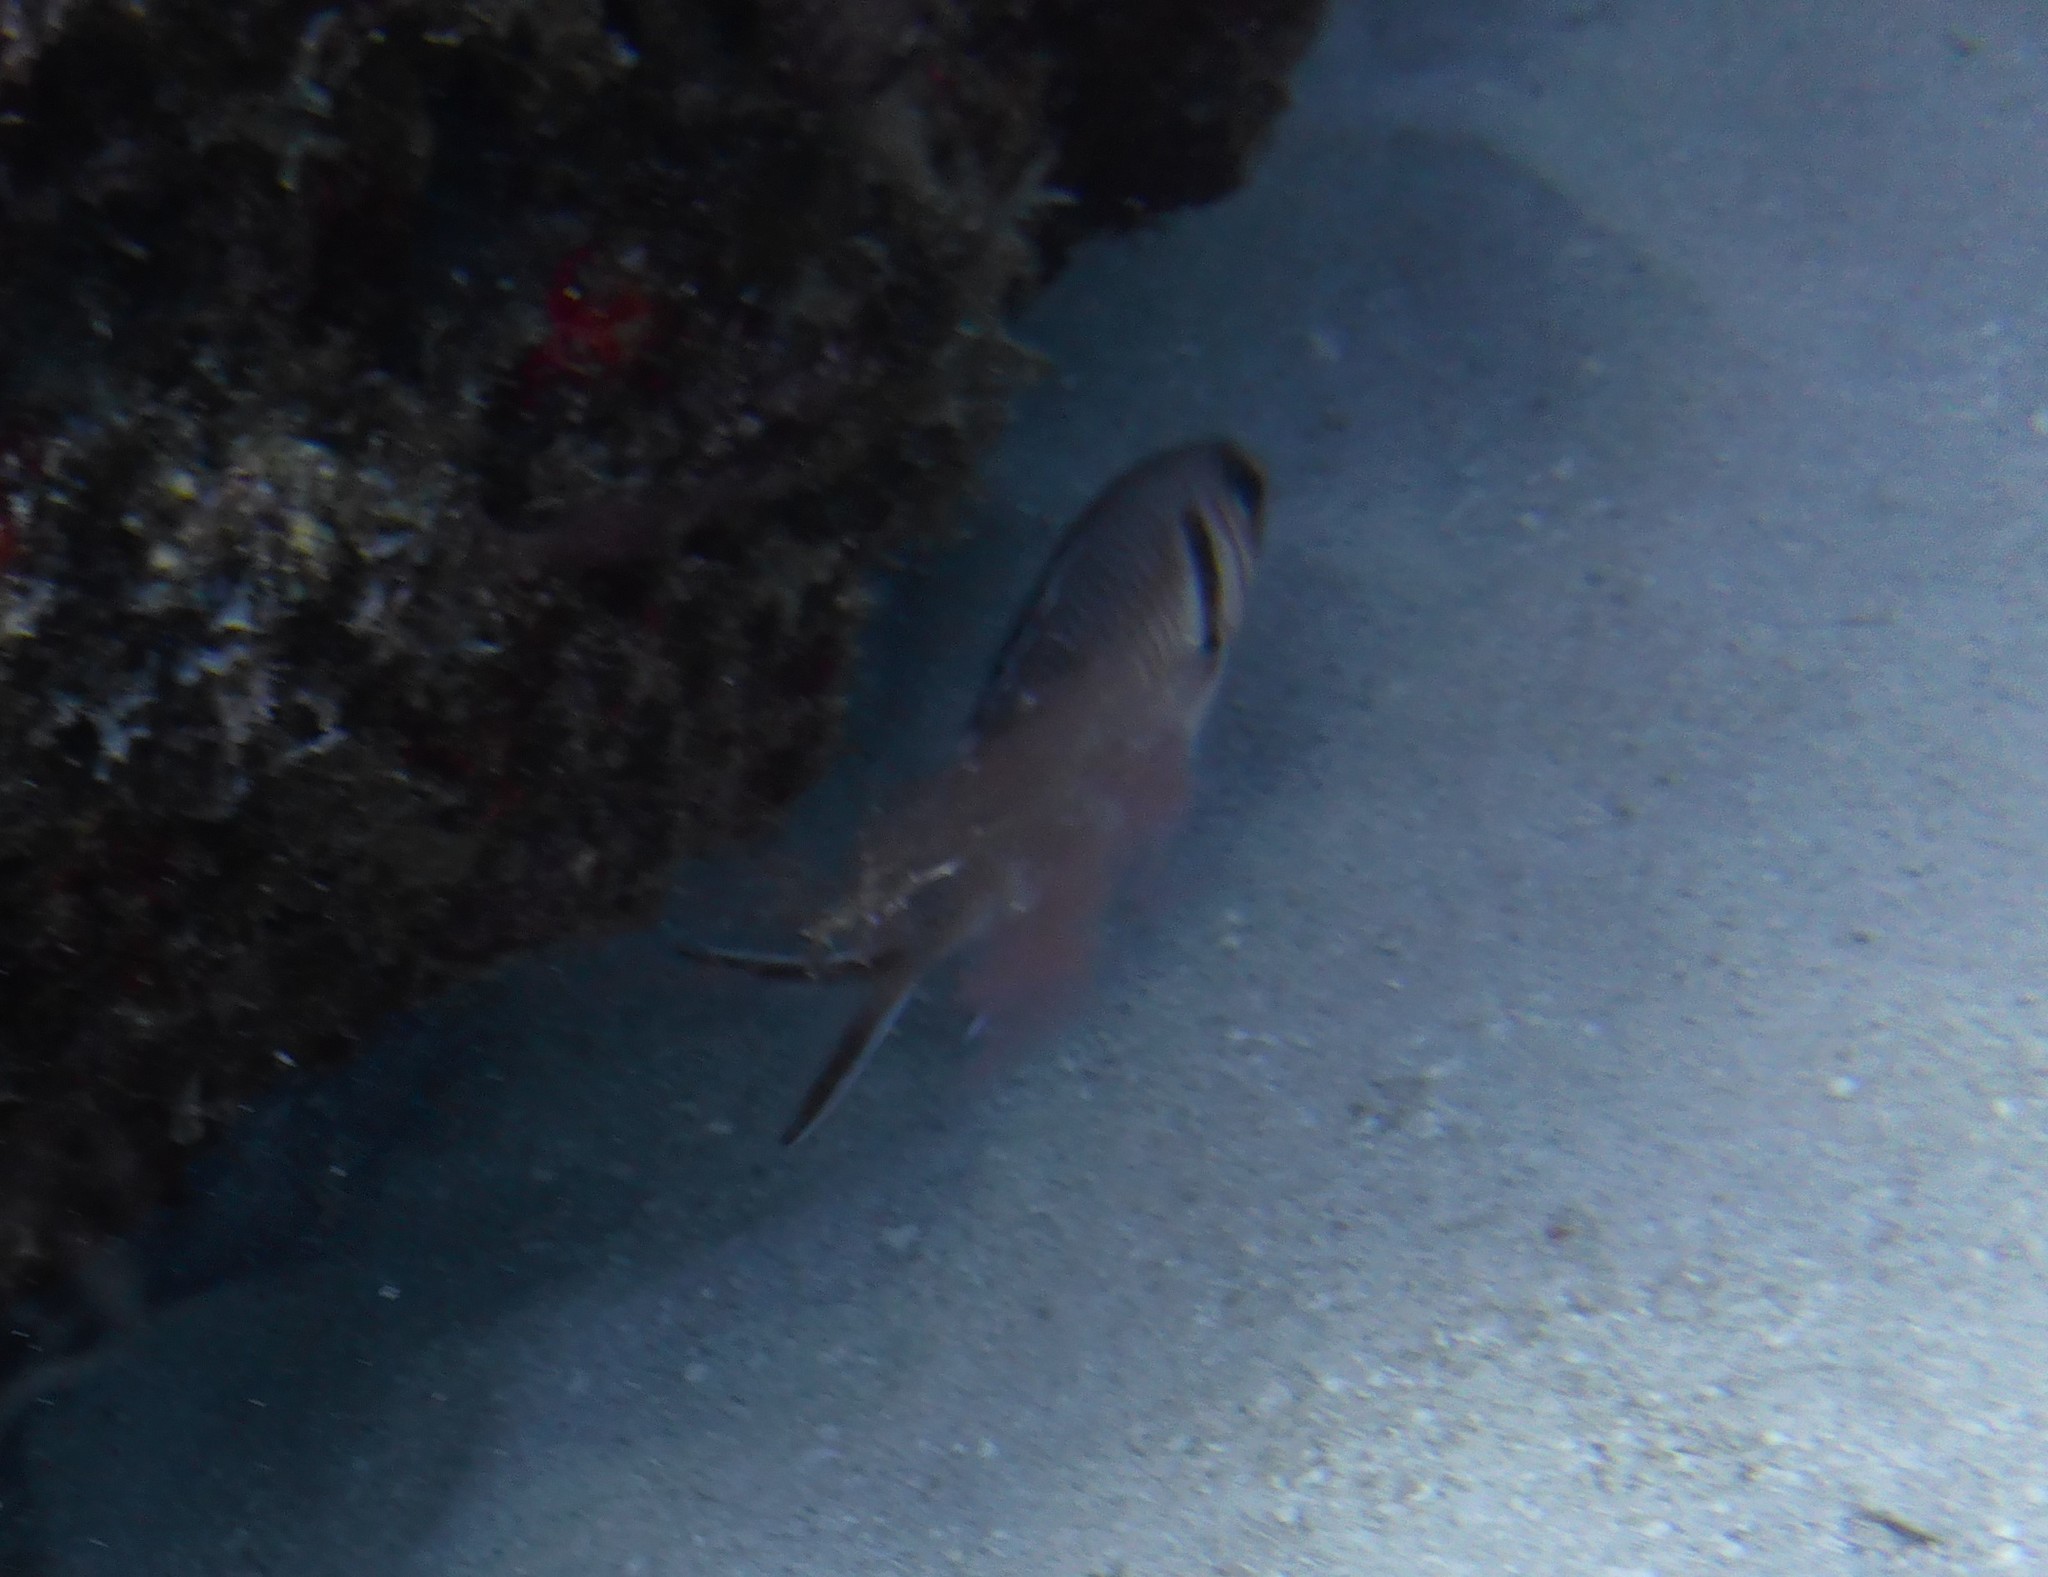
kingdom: Animalia
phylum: Chordata
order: Beryciformes
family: Holocentridae
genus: Myripristis
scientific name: Myripristis jacobus
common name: Blackbar soldierfish
